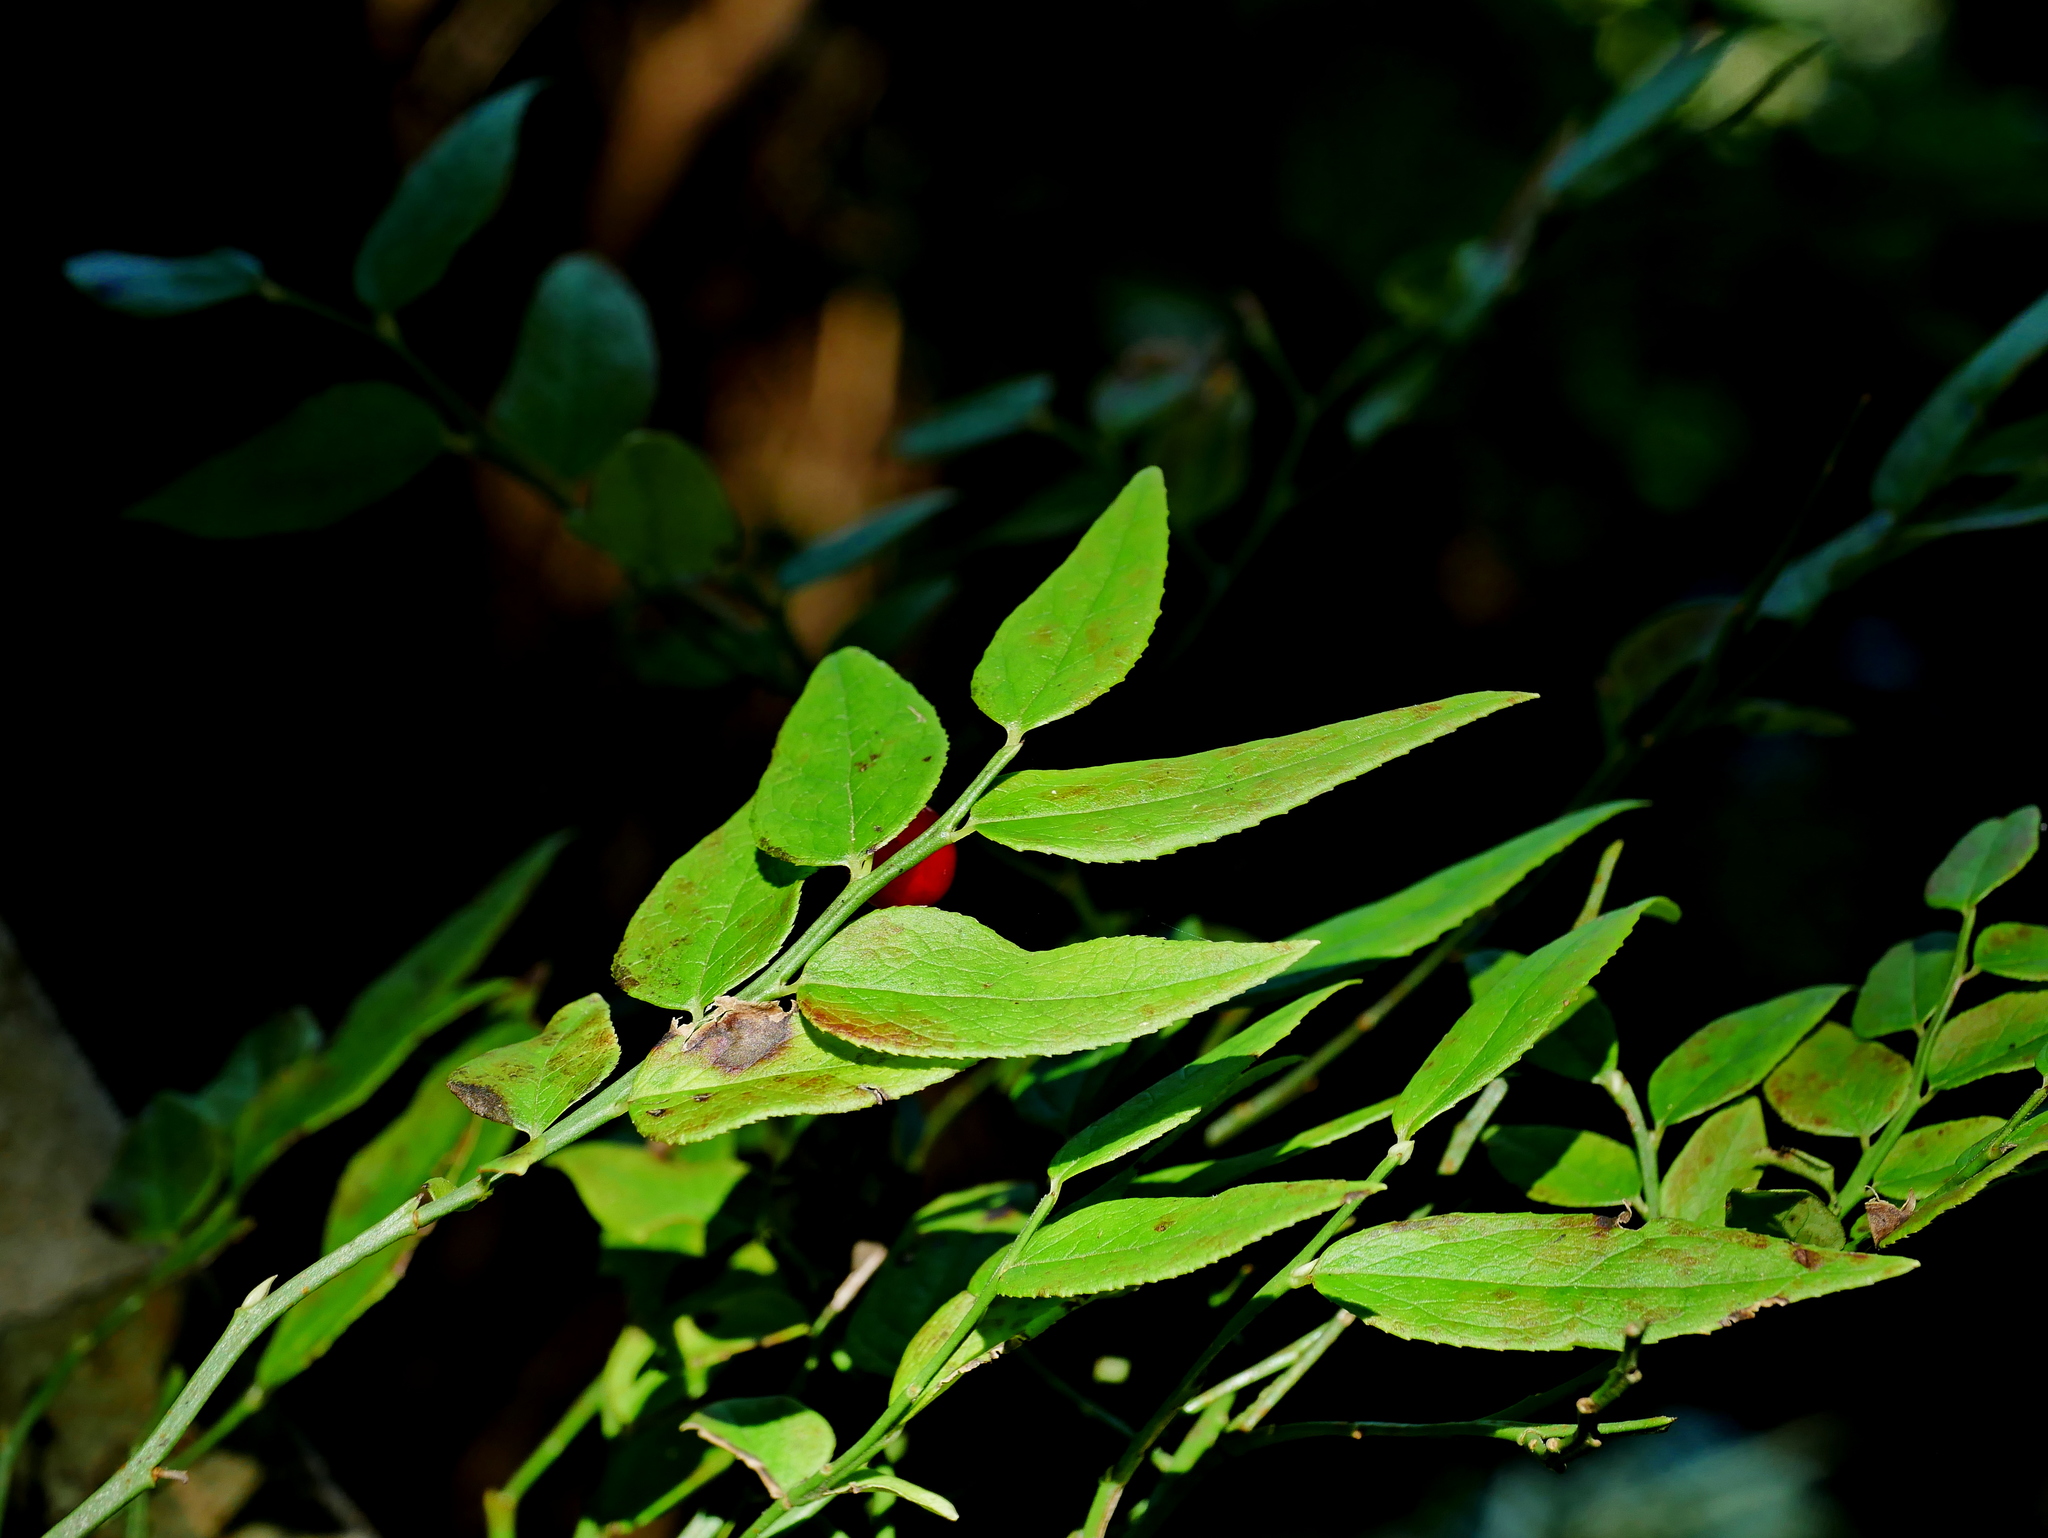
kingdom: Plantae
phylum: Tracheophyta
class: Magnoliopsida
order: Ericales
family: Ericaceae
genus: Vaccinium
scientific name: Vaccinium japonicum
